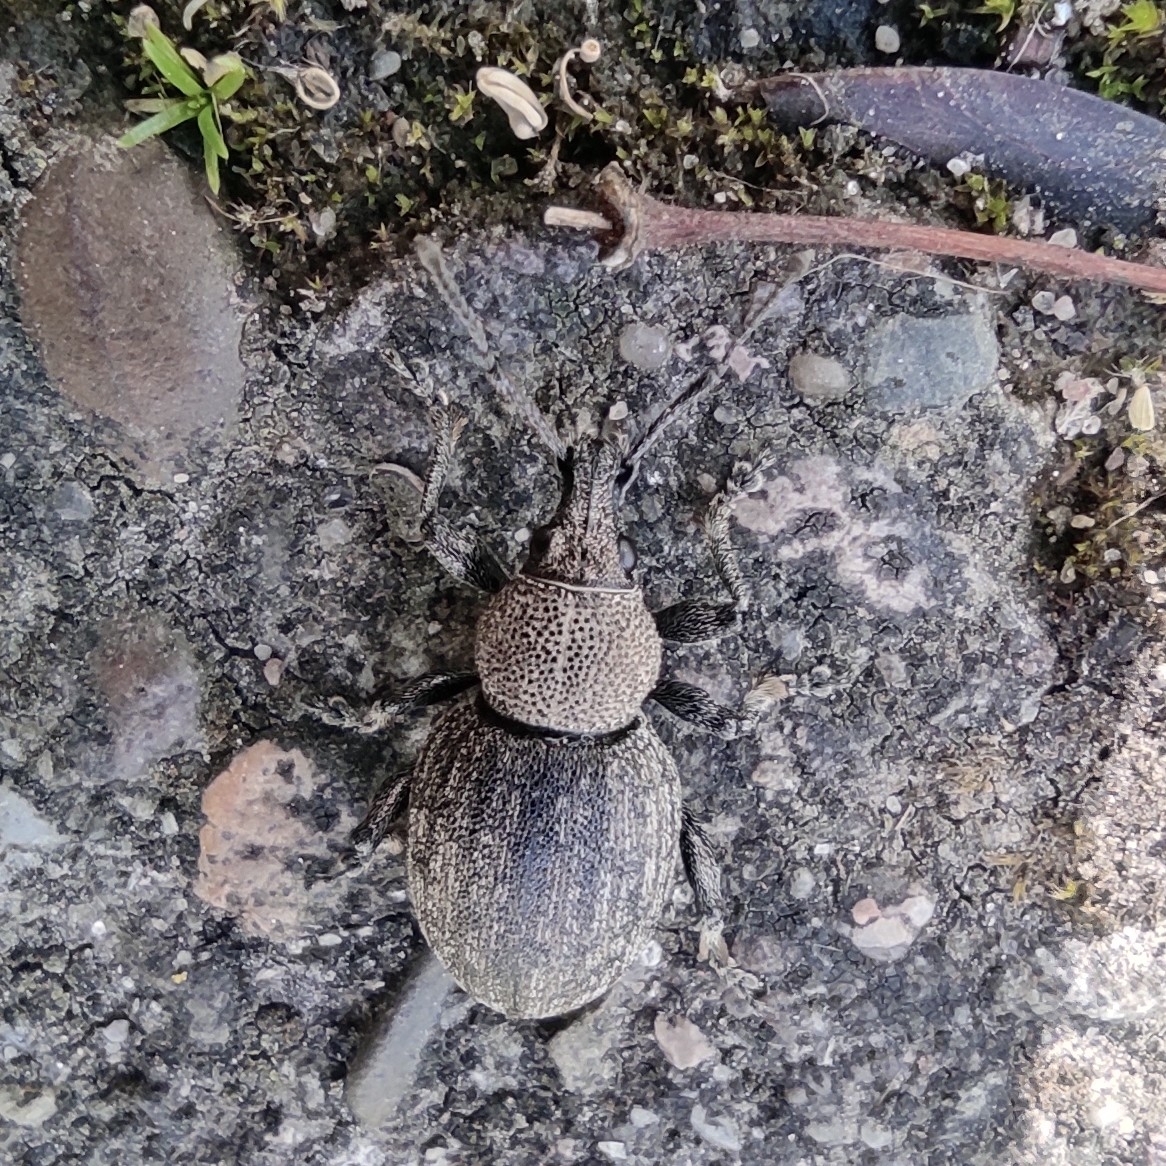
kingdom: Animalia
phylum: Arthropoda
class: Insecta
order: Coleoptera
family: Curculionidae
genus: Otiorhynchus
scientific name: Otiorhynchus ligustici
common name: Weevil
